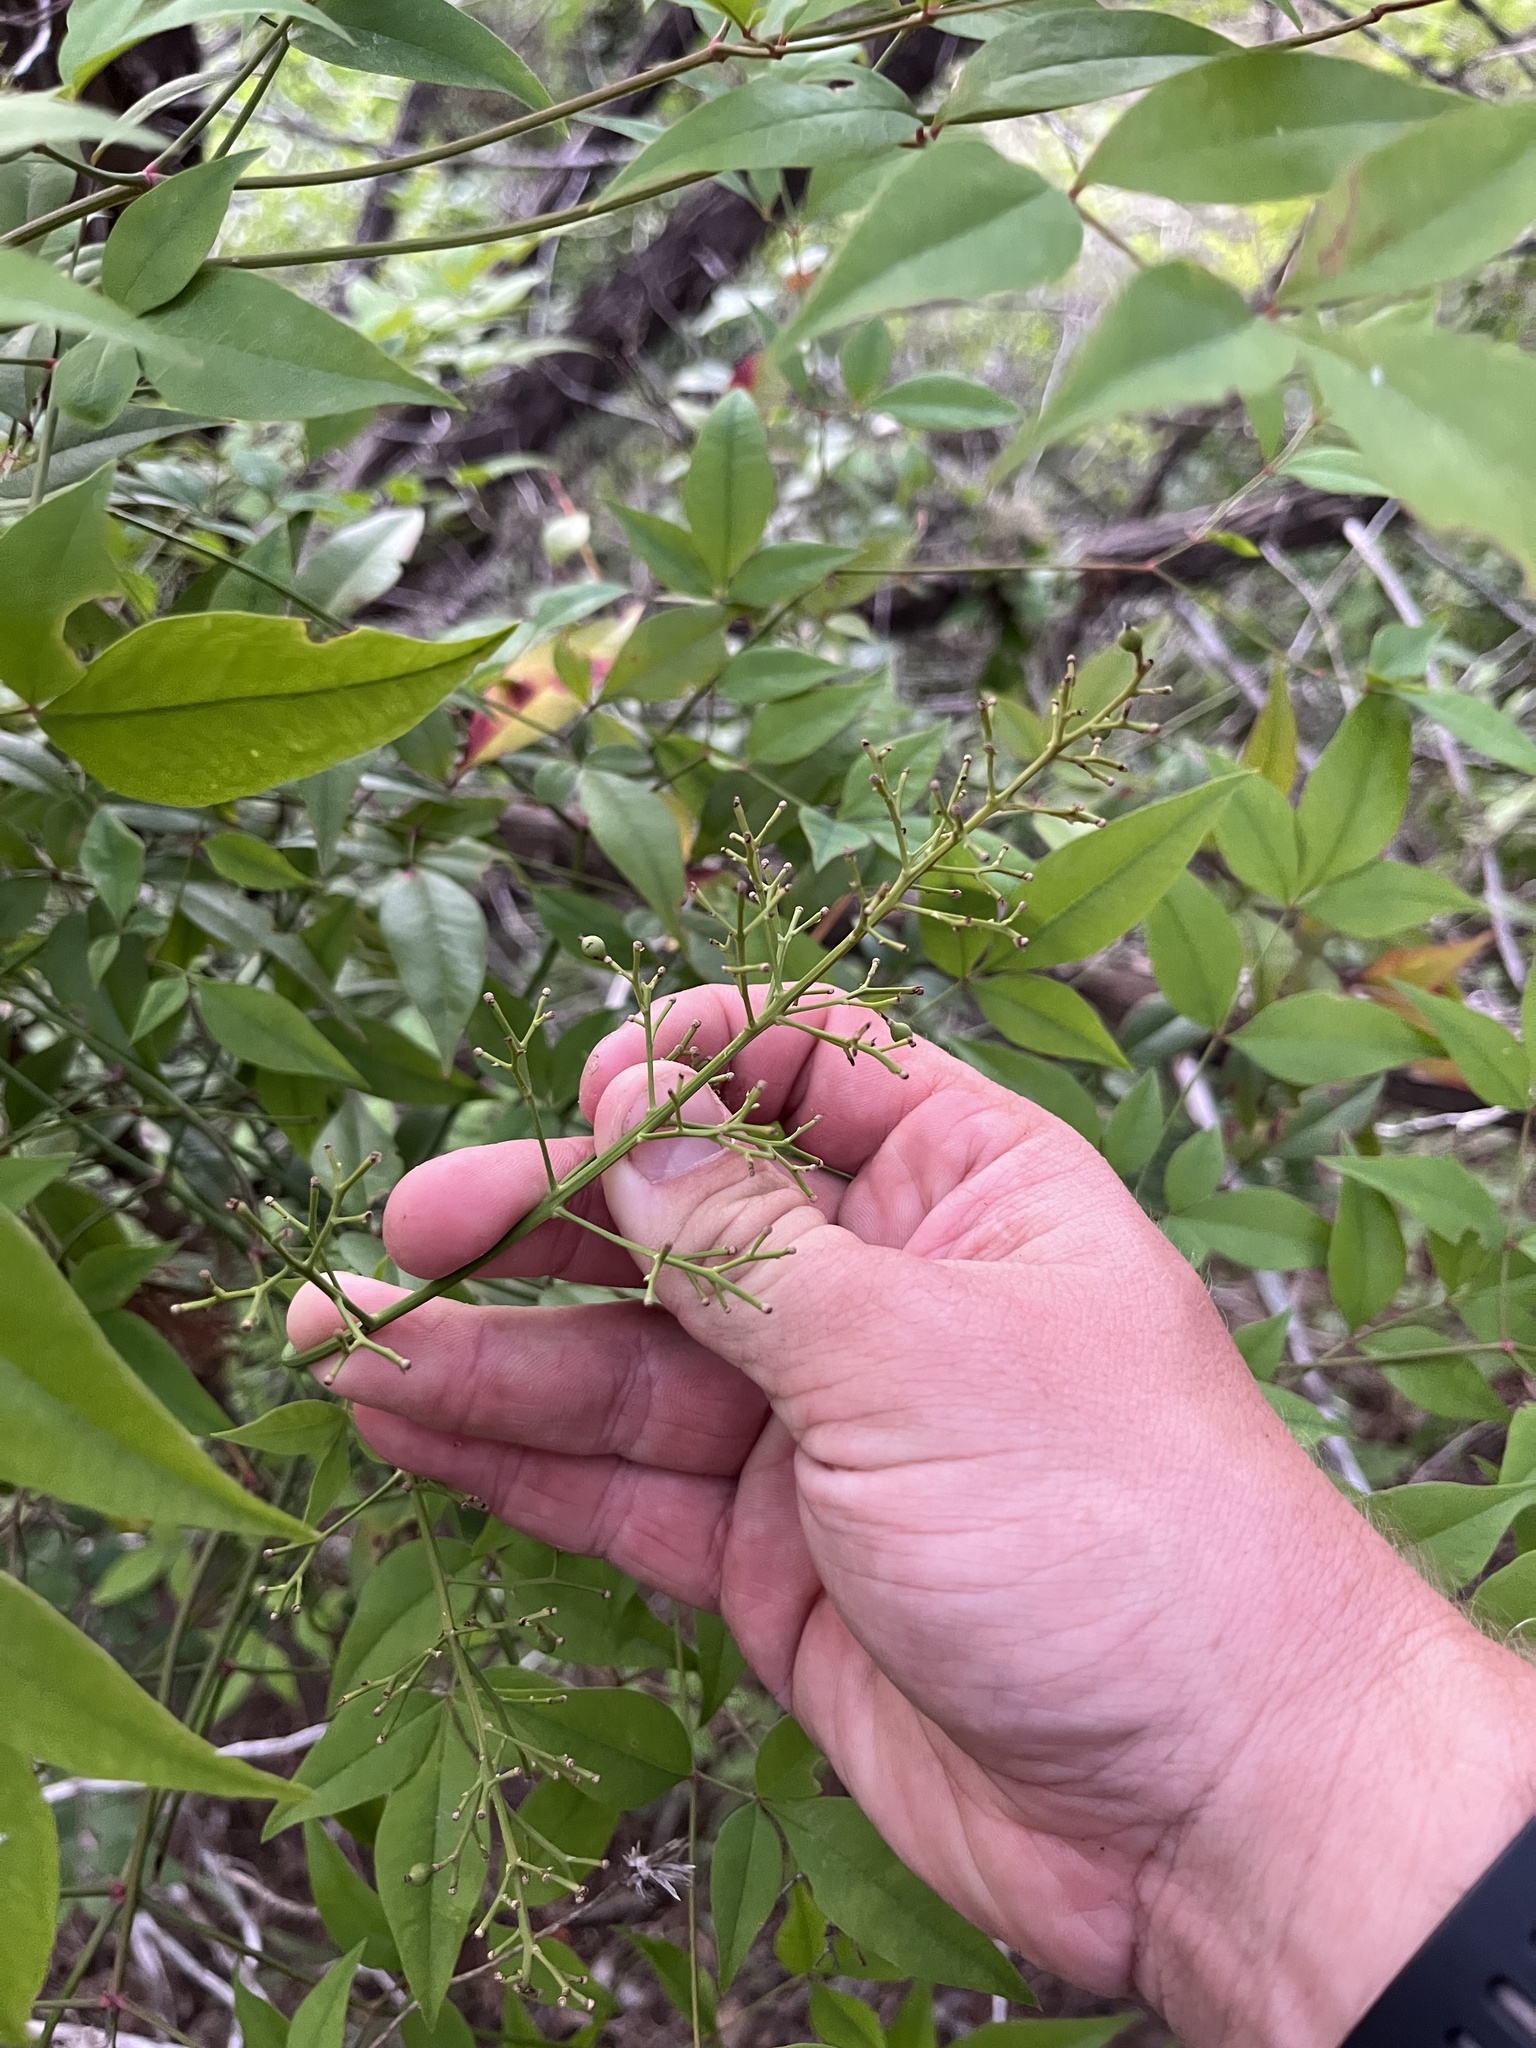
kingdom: Plantae
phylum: Tracheophyta
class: Magnoliopsida
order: Ranunculales
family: Berberidaceae
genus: Nandina
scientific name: Nandina domestica
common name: Sacred bamboo
